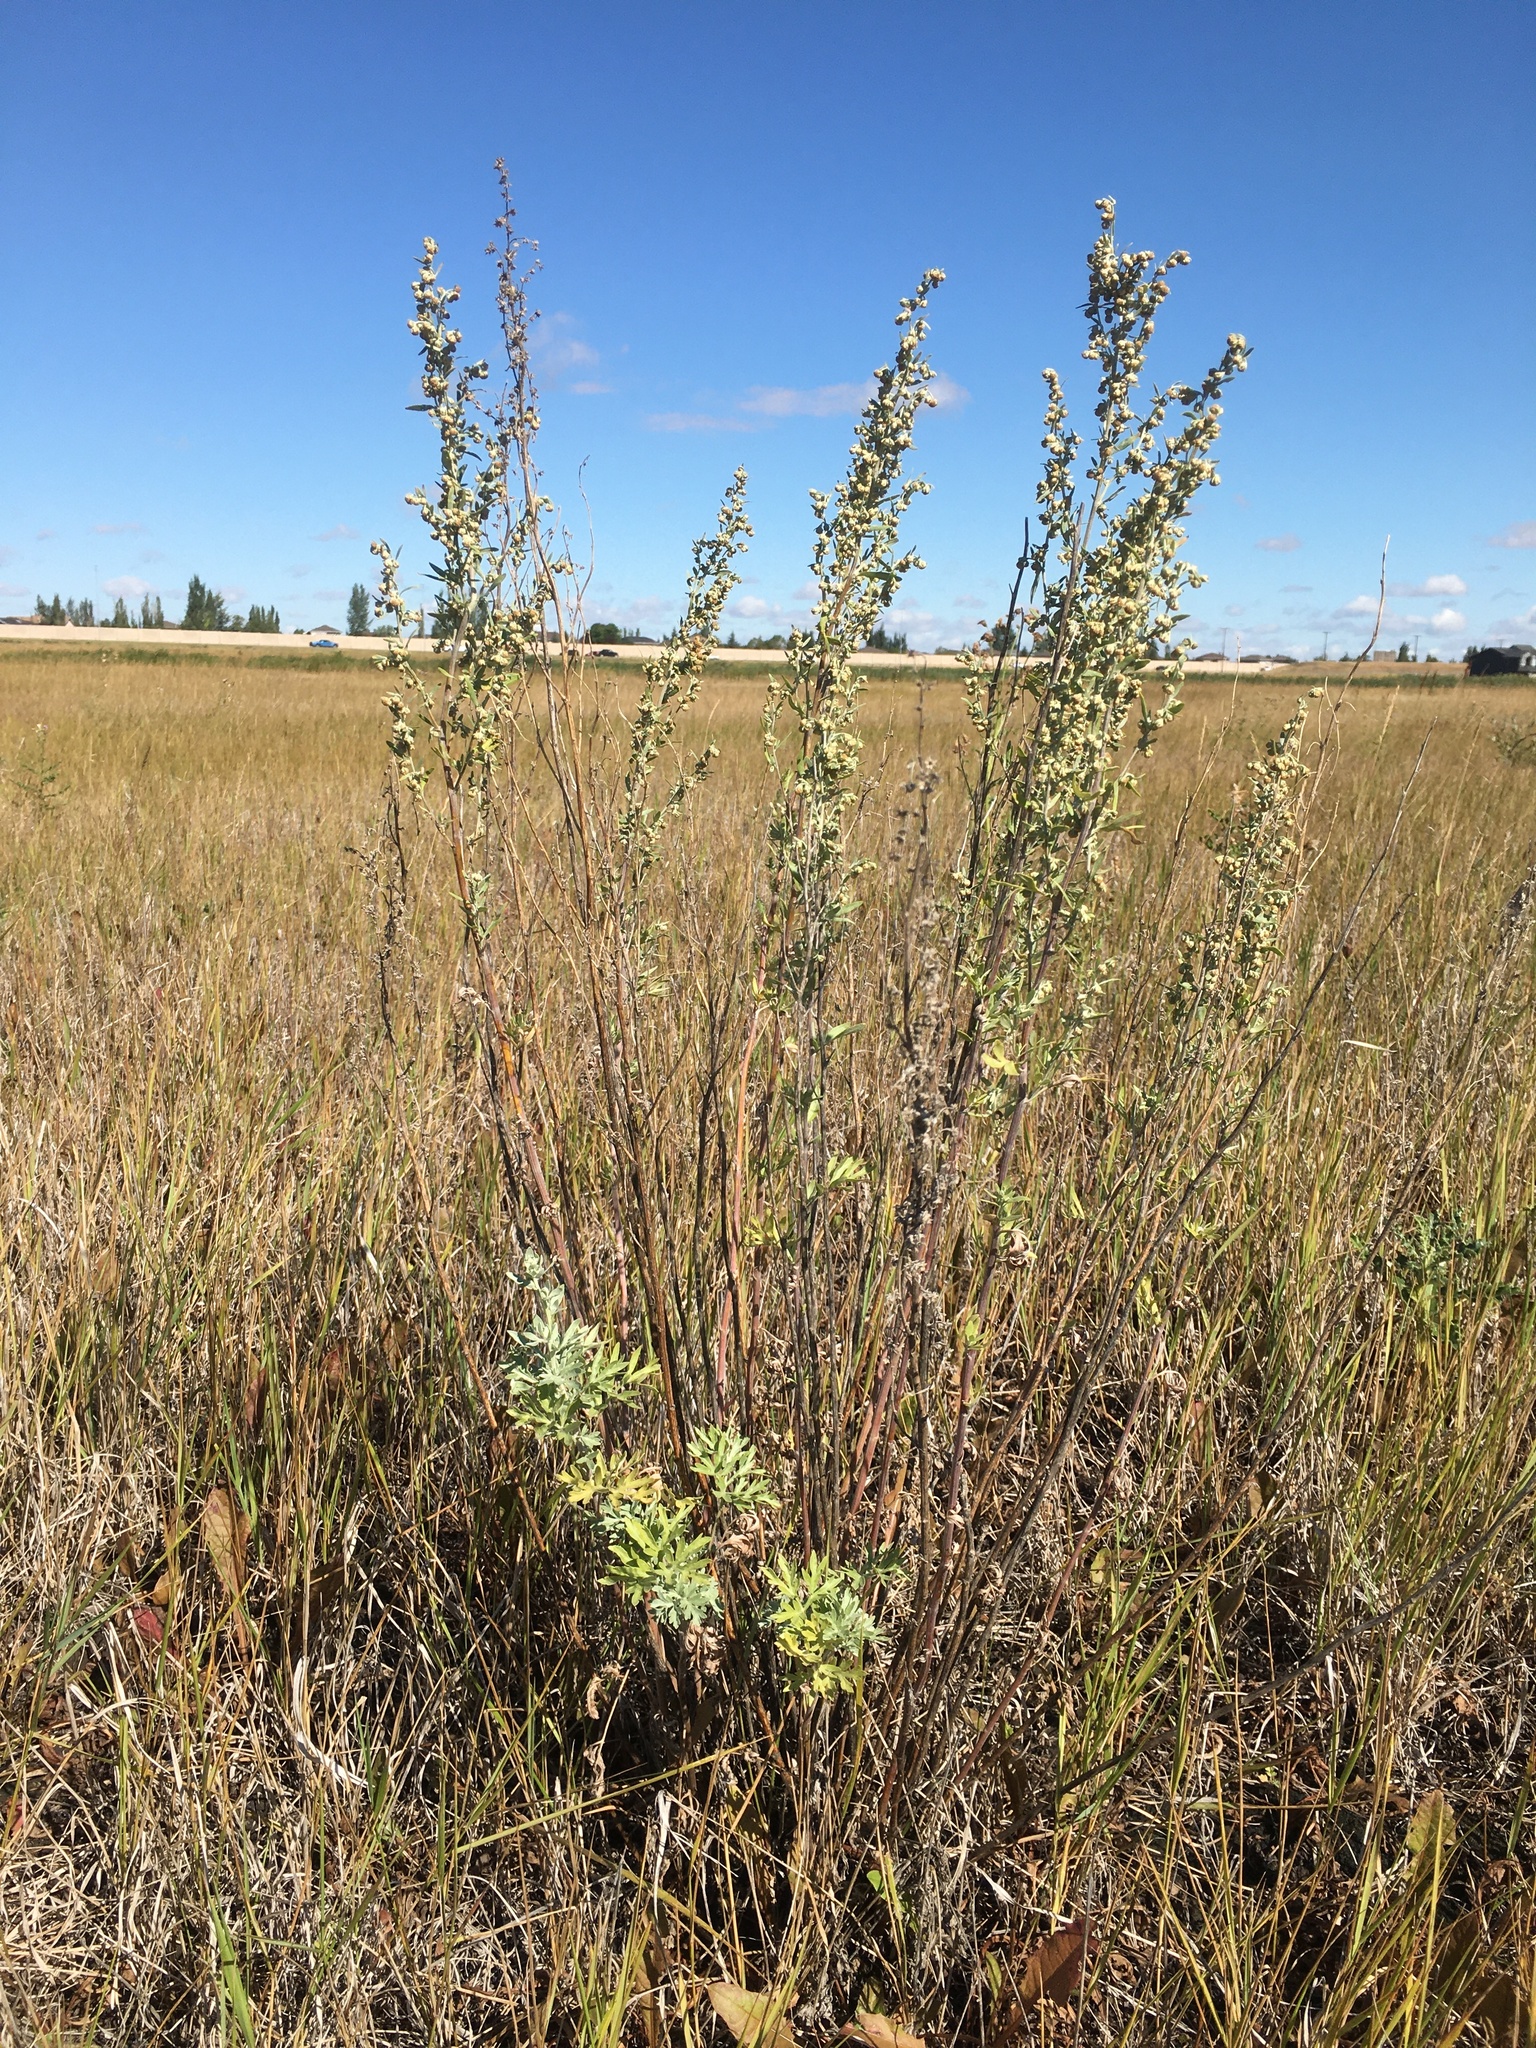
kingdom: Plantae
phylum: Tracheophyta
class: Magnoliopsida
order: Asterales
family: Asteraceae
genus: Artemisia
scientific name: Artemisia absinthium
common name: Wormwood
